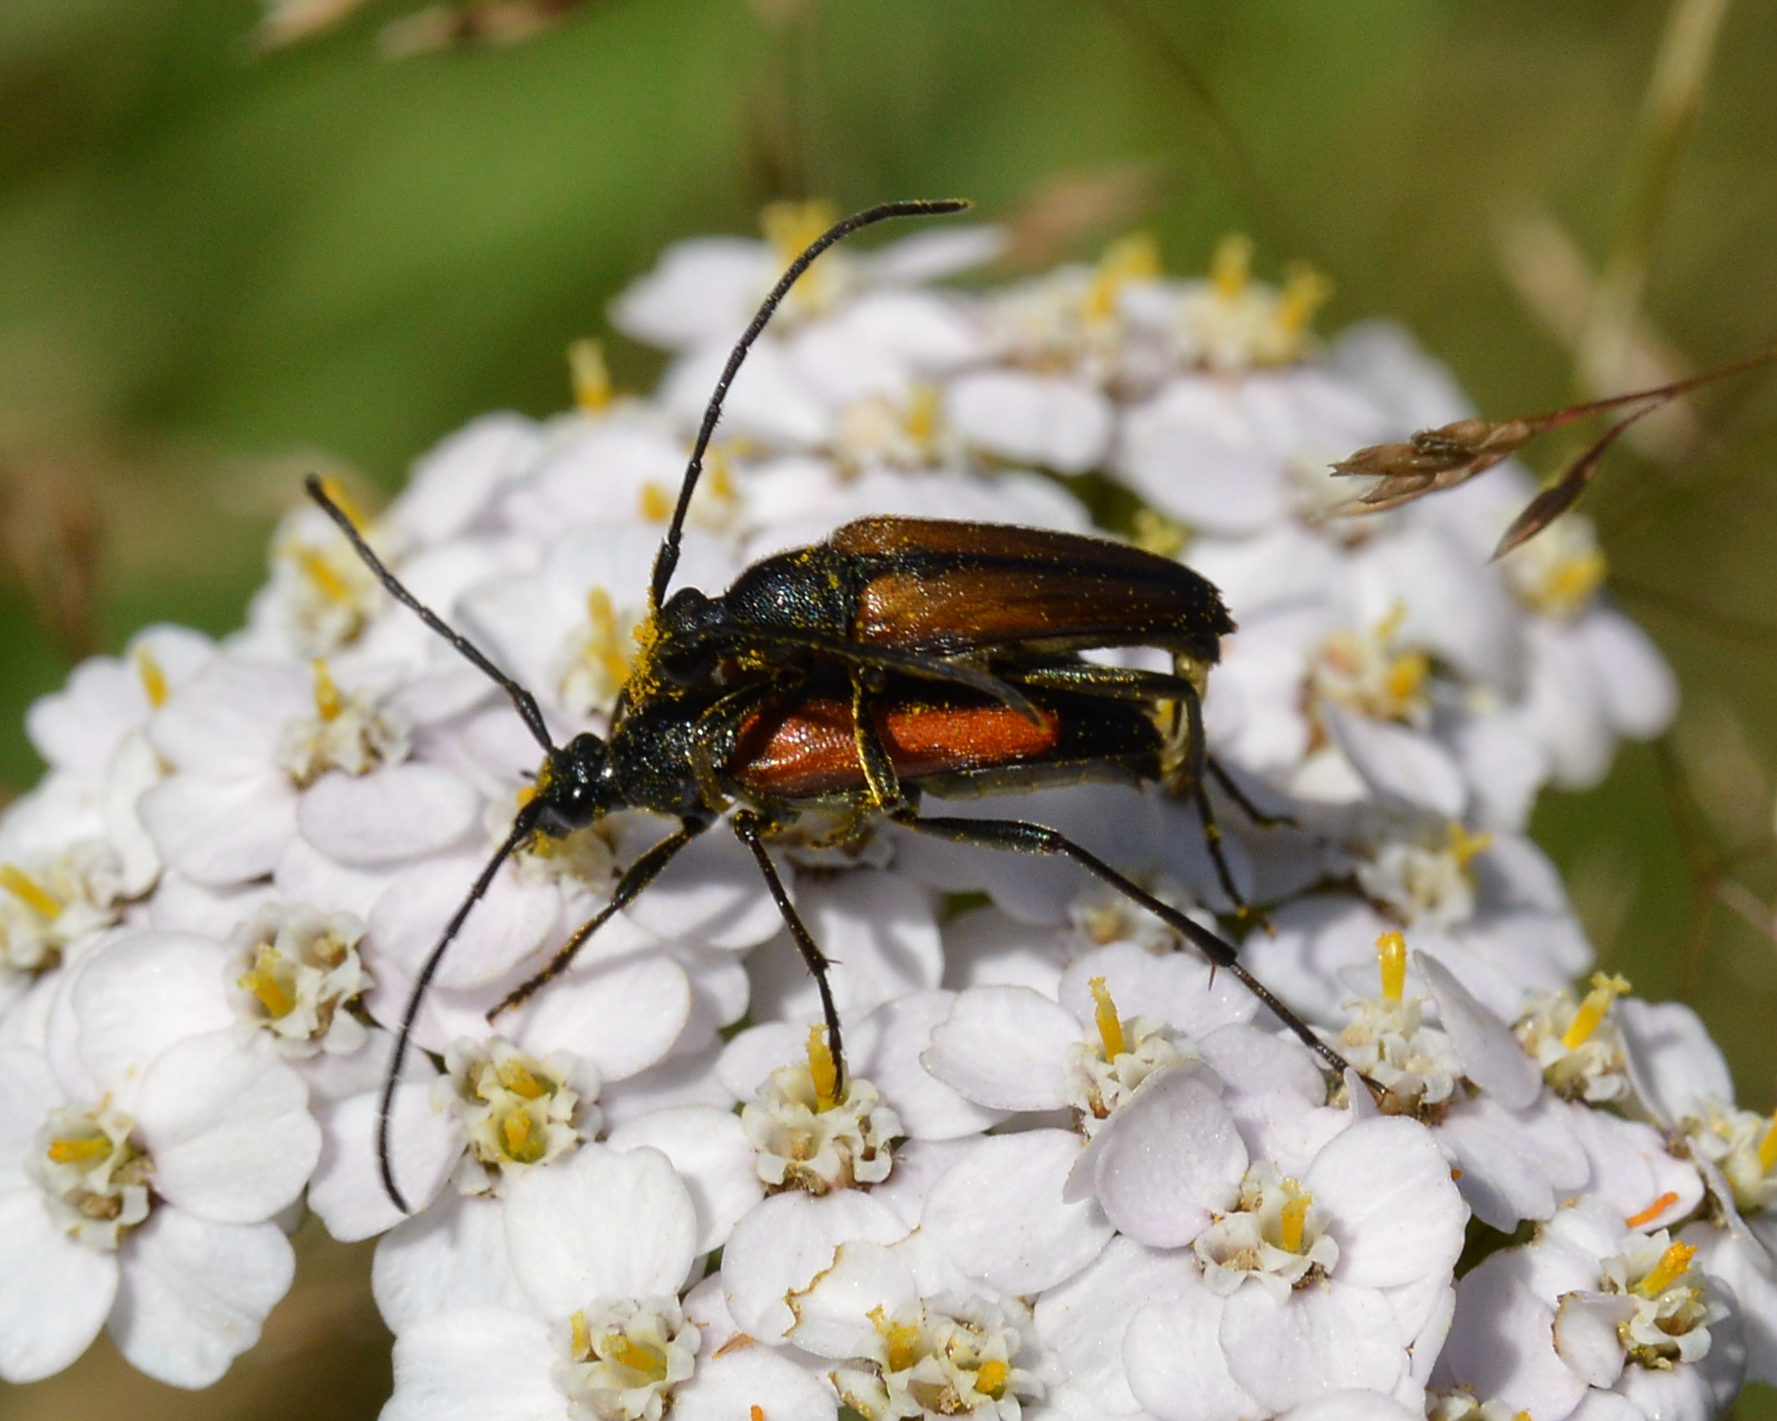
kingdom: Animalia
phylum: Arthropoda
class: Insecta
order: Coleoptera
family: Cerambycidae
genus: Stenurella
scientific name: Stenurella melanura
